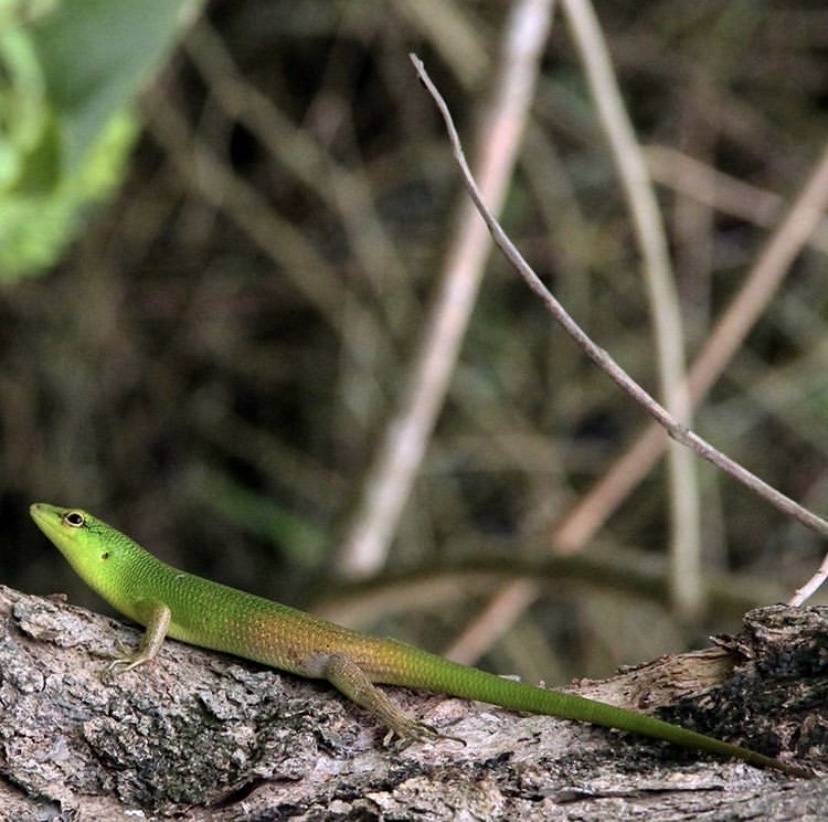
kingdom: Animalia
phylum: Chordata
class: Squamata
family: Scincidae
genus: Lamprolepis
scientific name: Lamprolepis smaragdina
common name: Emerald skink
